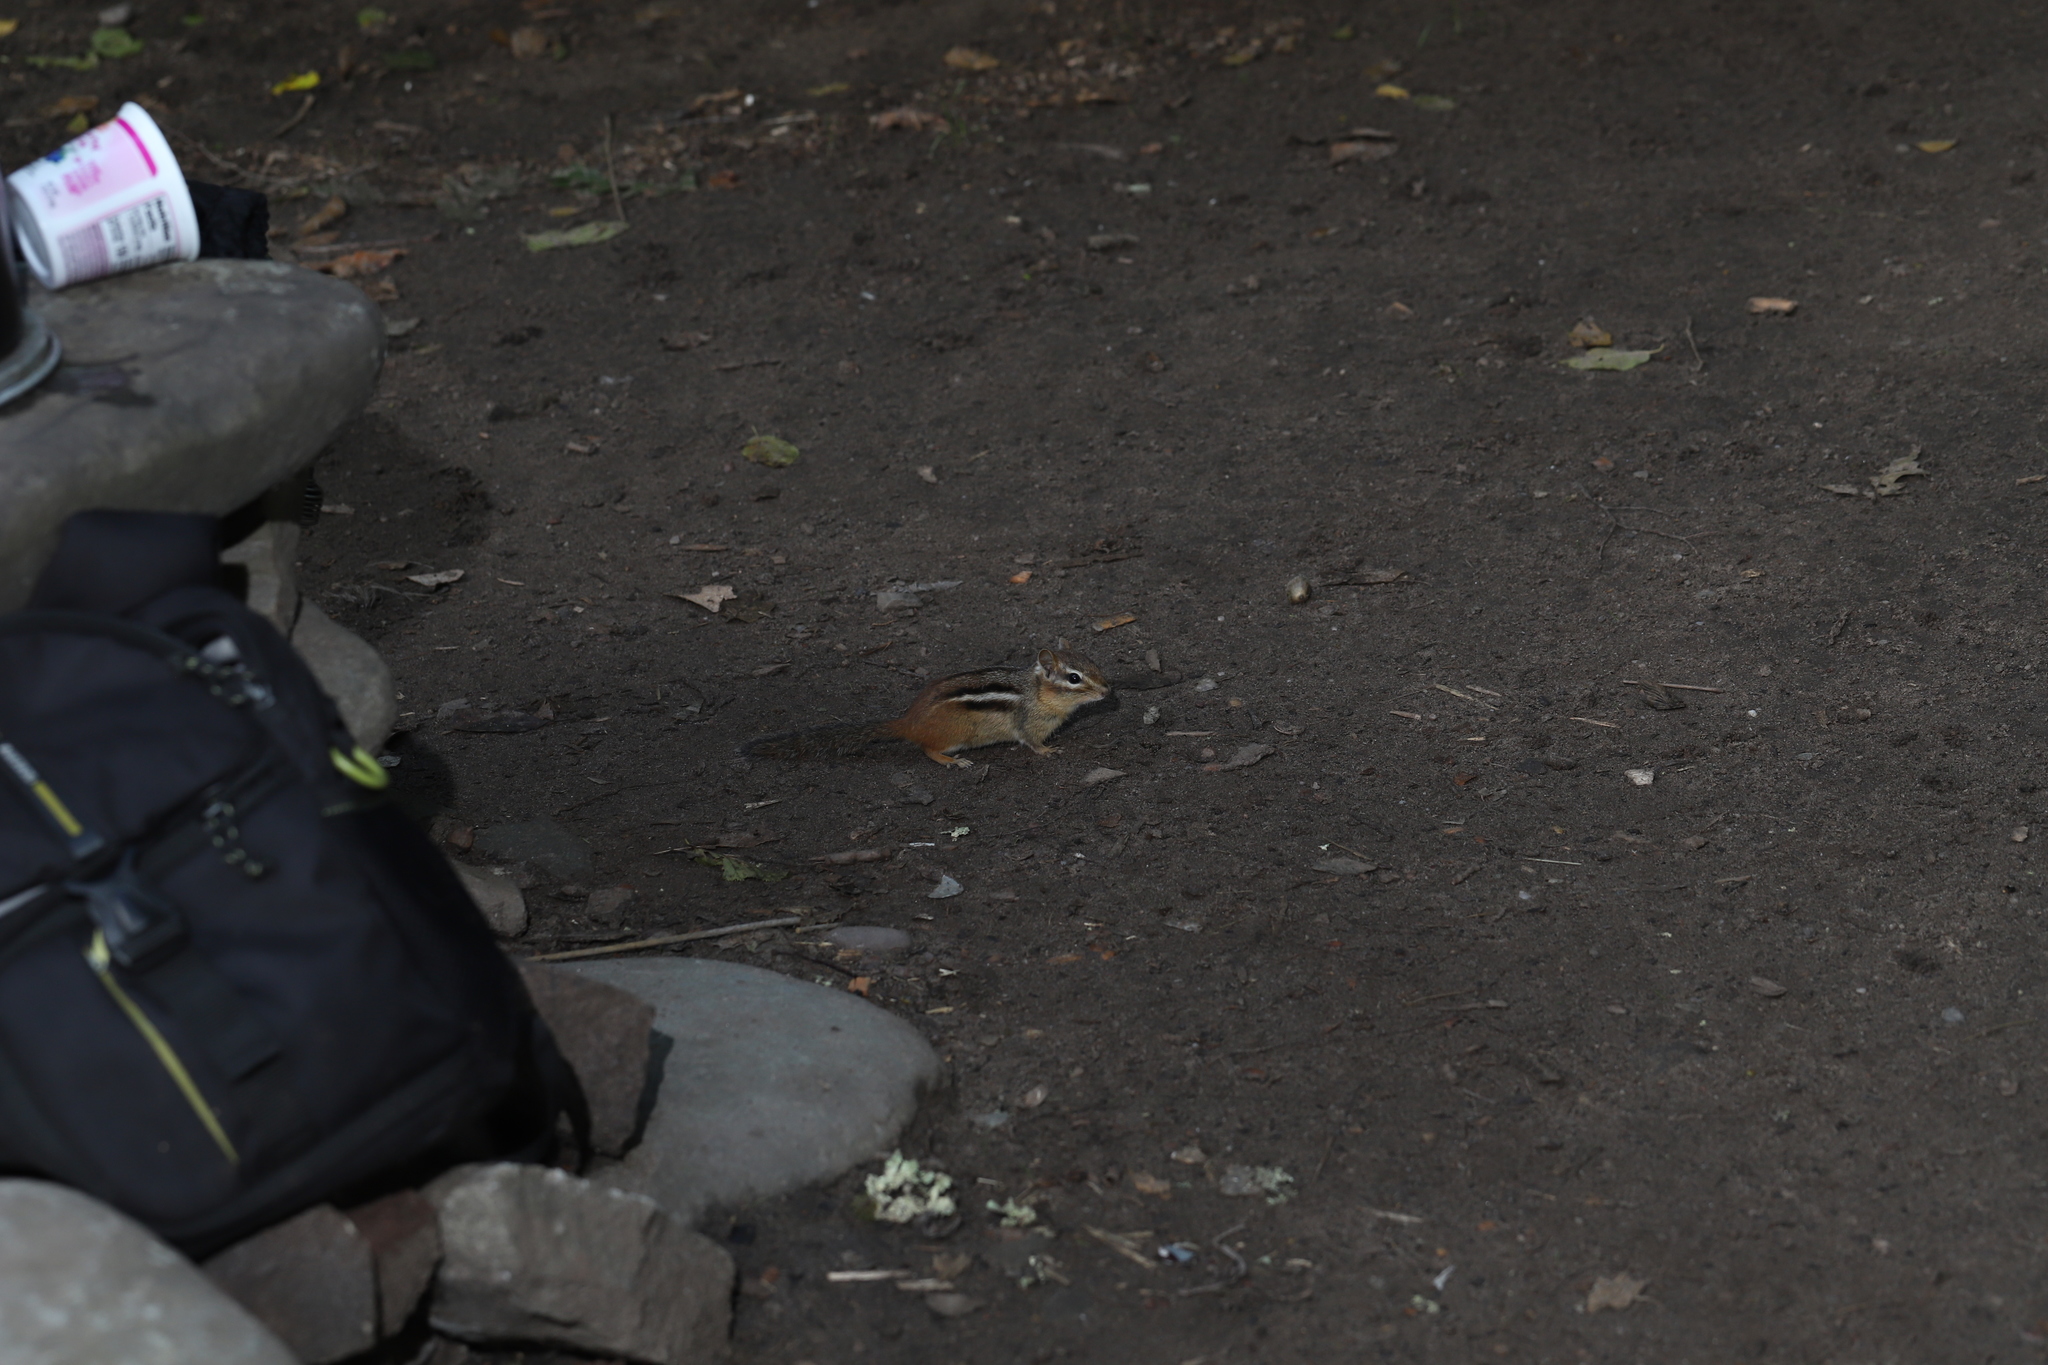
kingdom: Animalia
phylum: Chordata
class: Mammalia
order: Rodentia
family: Sciuridae
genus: Tamias
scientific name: Tamias striatus
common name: Eastern chipmunk
